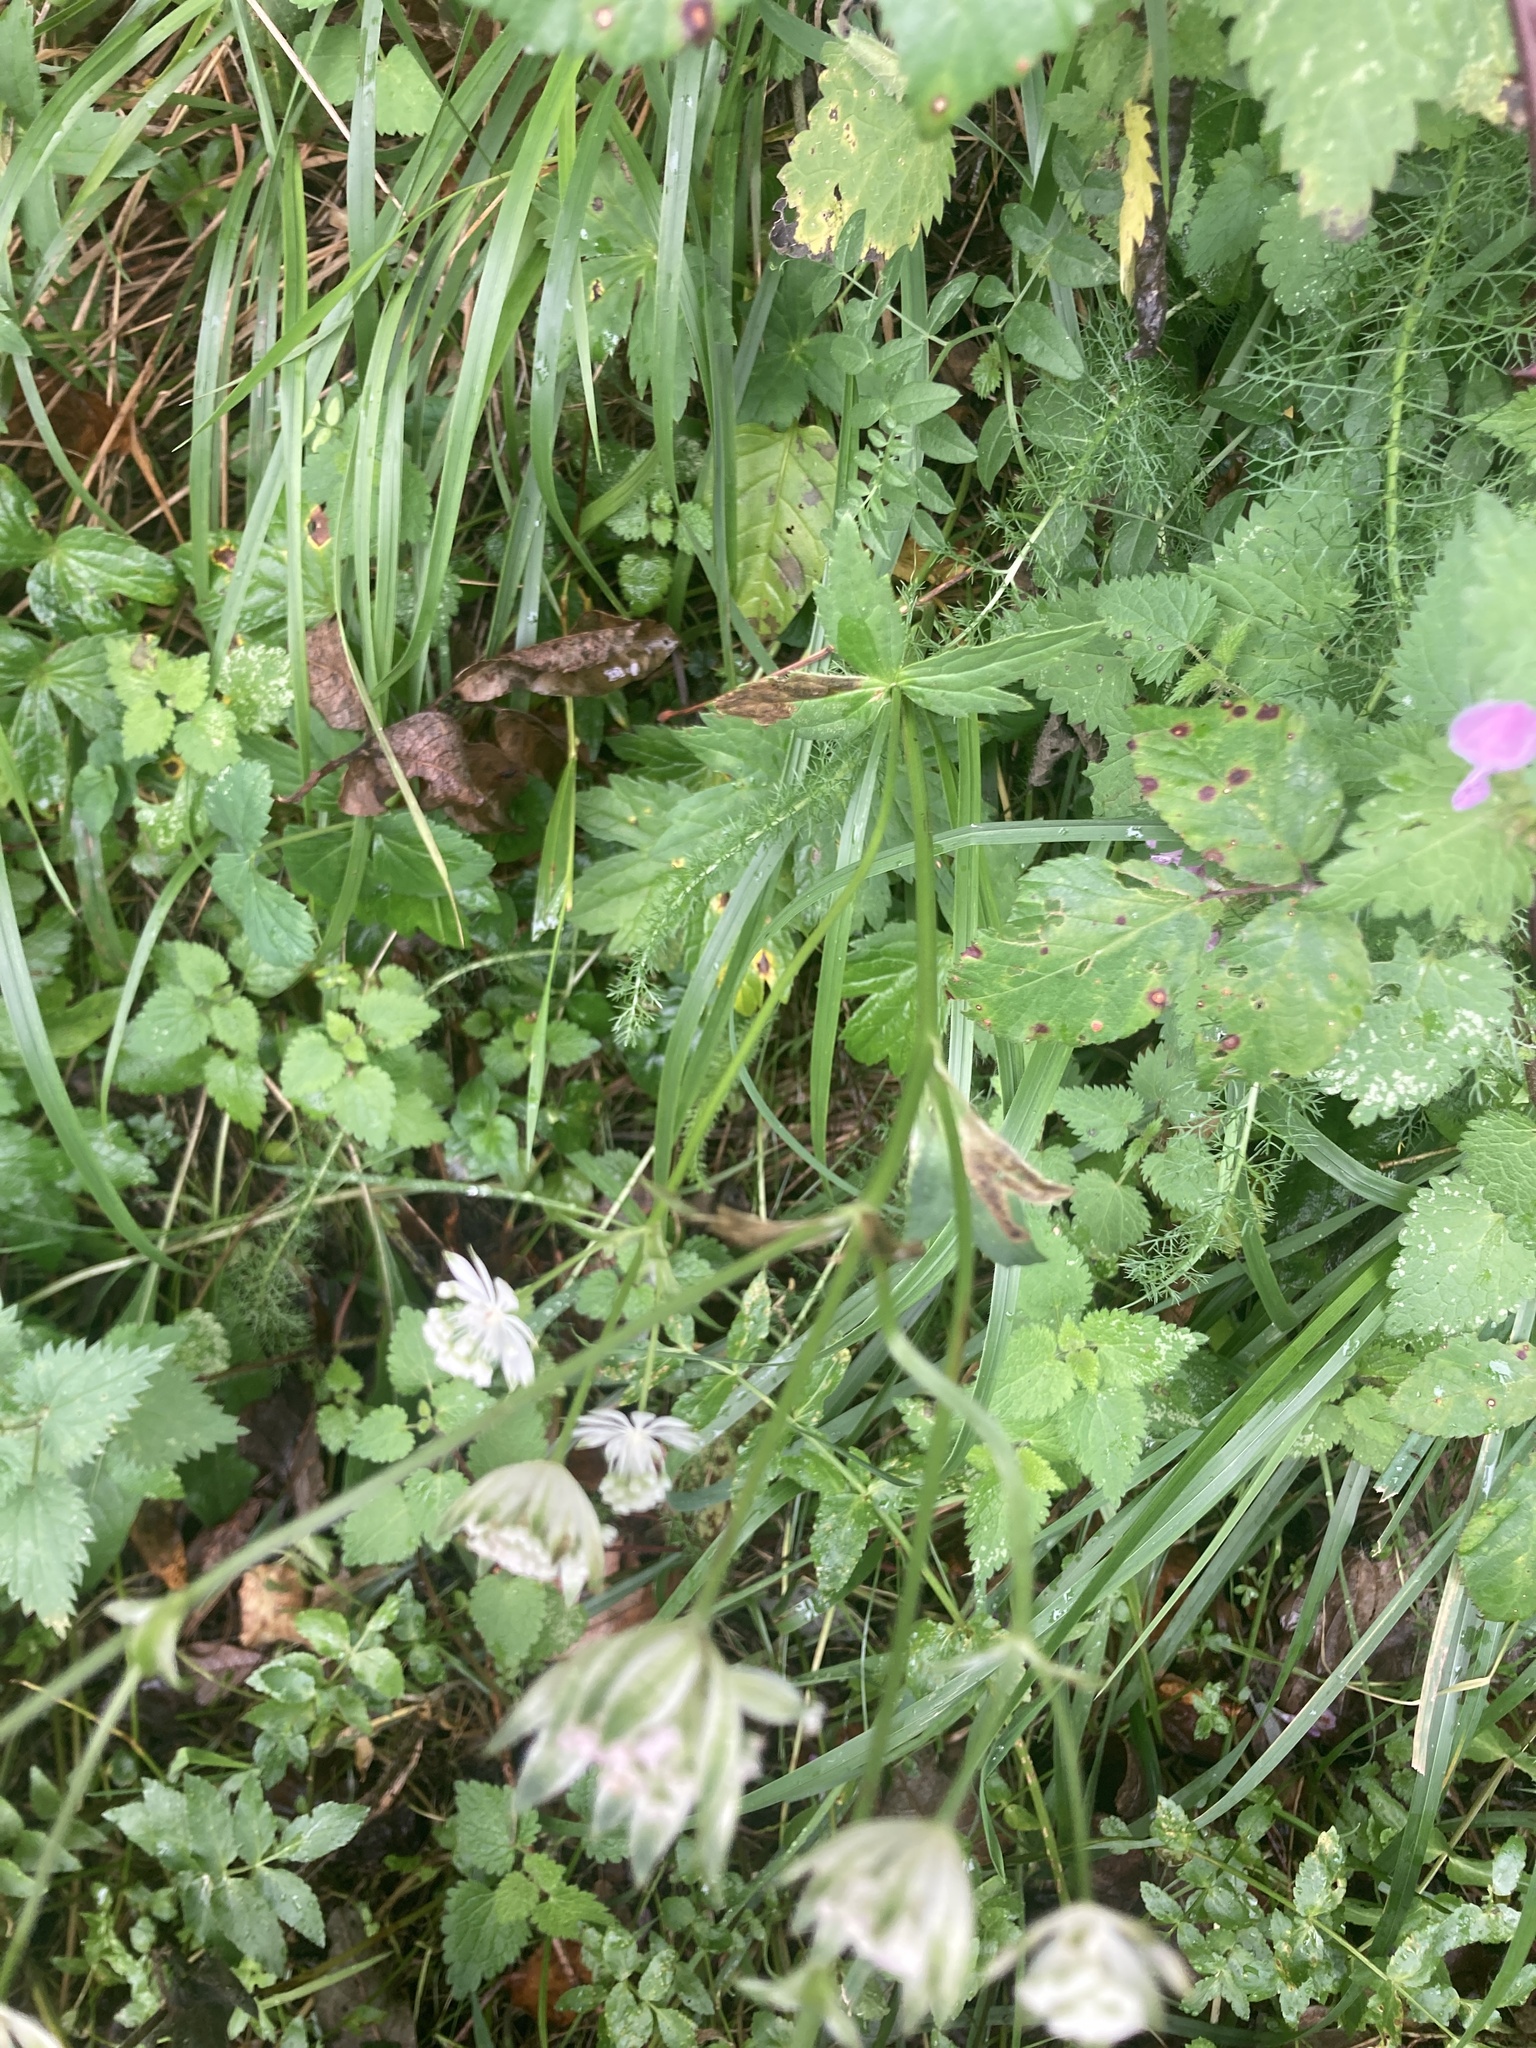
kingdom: Plantae
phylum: Tracheophyta
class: Magnoliopsida
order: Apiales
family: Apiaceae
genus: Astrantia
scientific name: Astrantia major
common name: Greater masterwort
